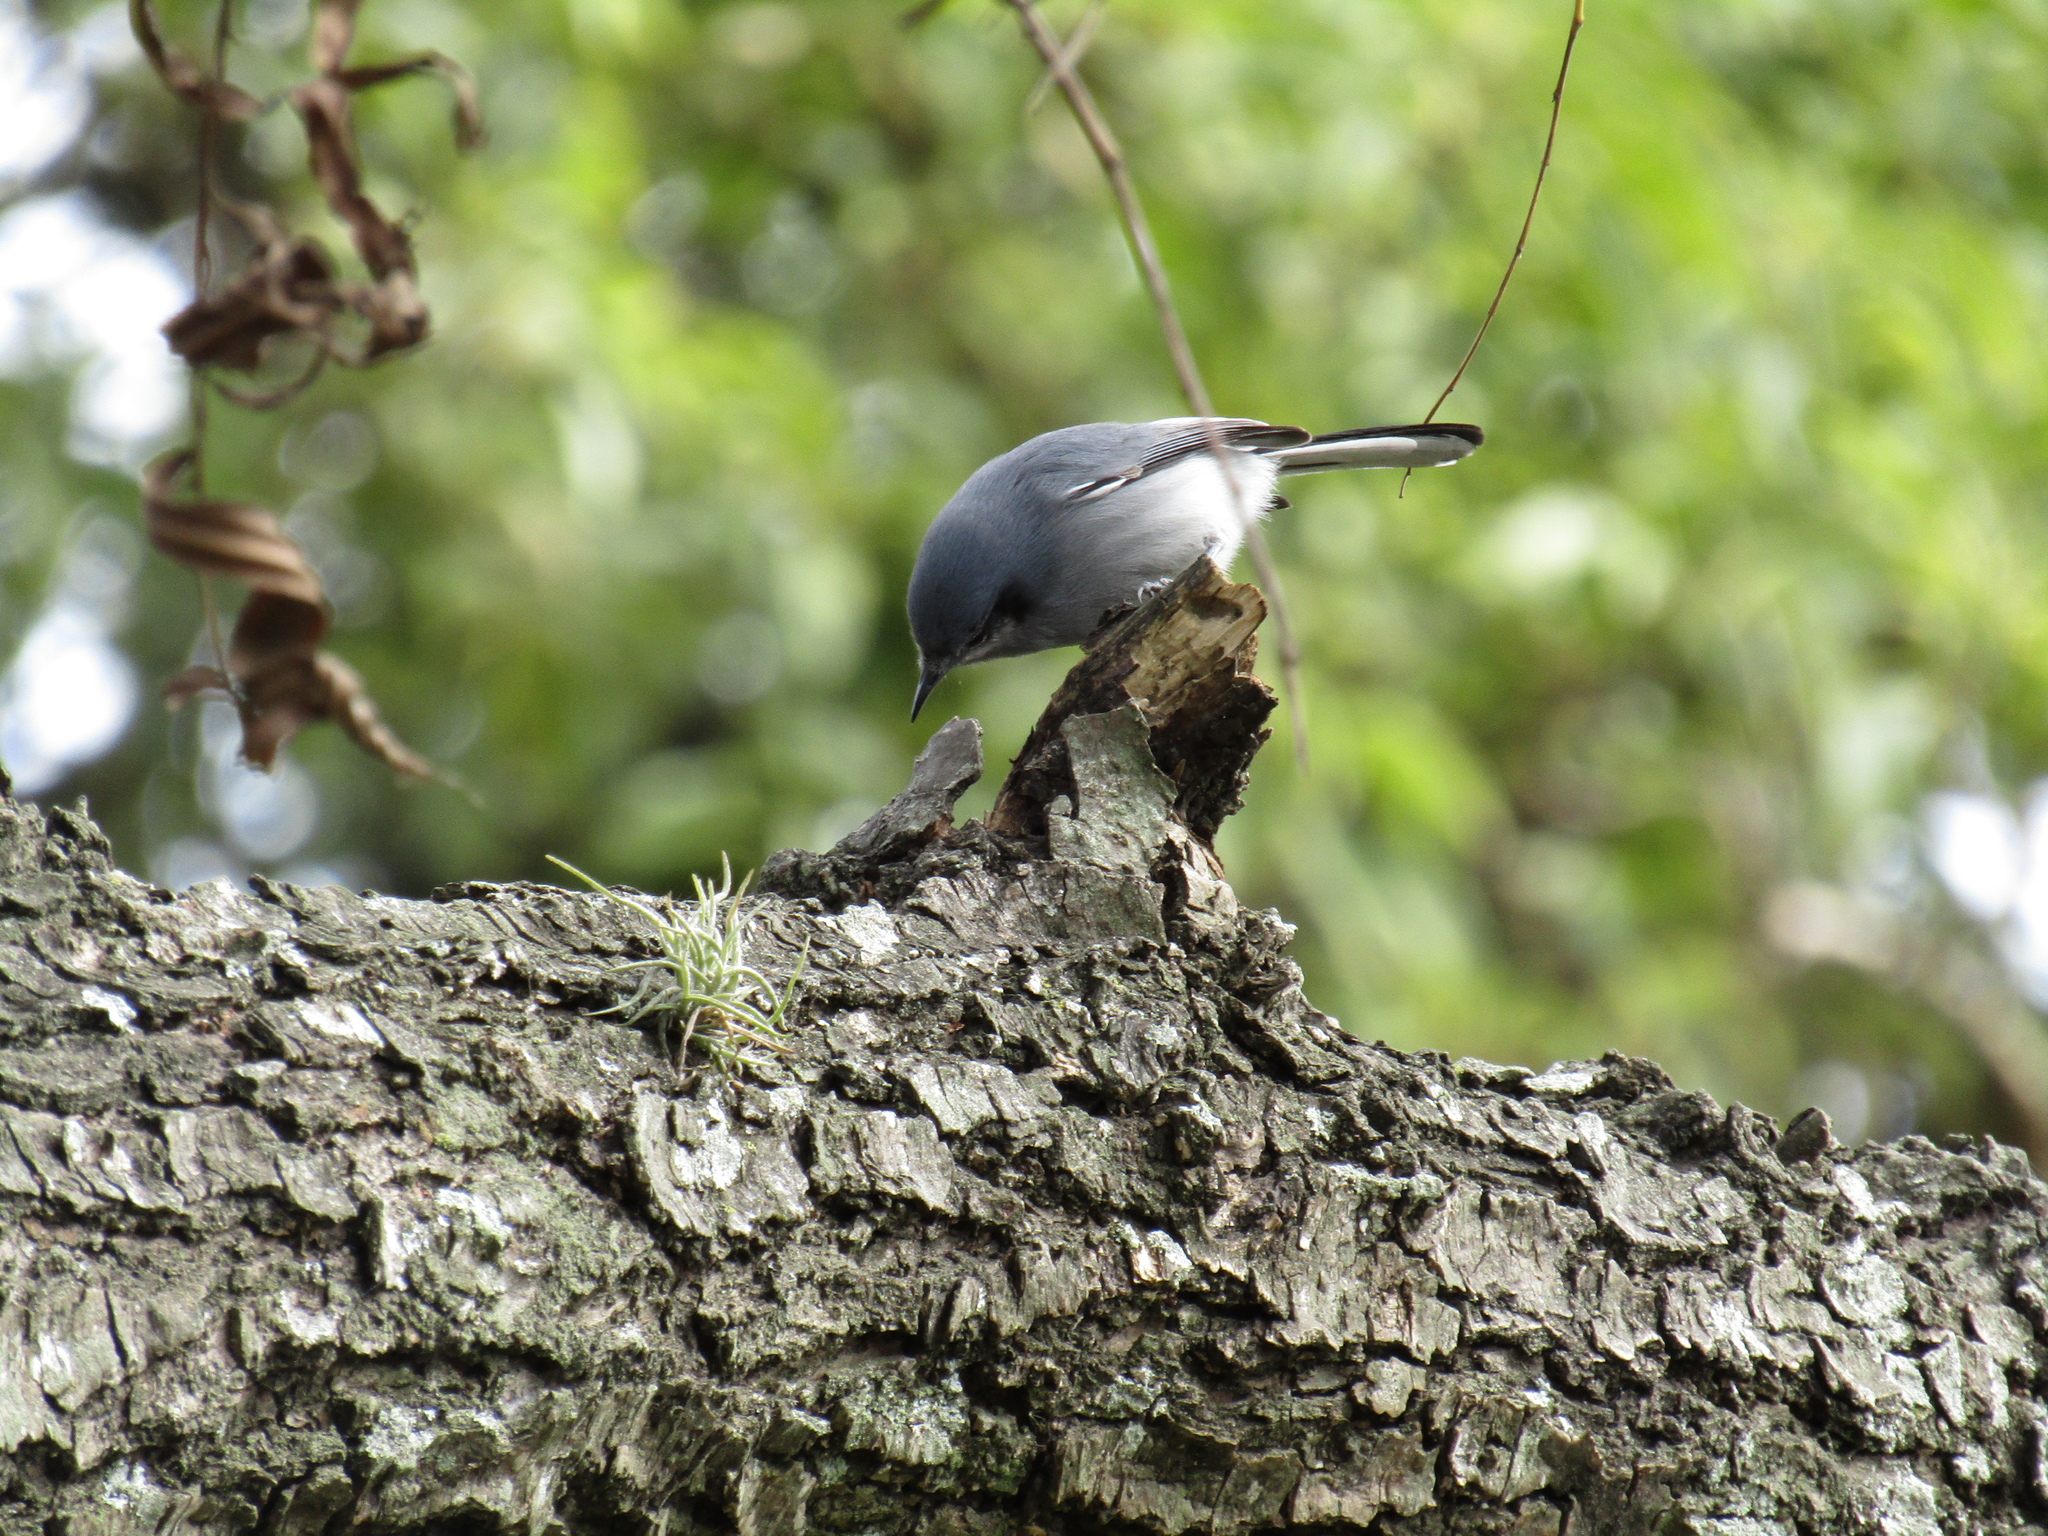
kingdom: Animalia
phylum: Chordata
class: Aves
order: Passeriformes
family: Polioptilidae
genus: Polioptila
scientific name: Polioptila dumicola
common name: Masked gnatcatcher
